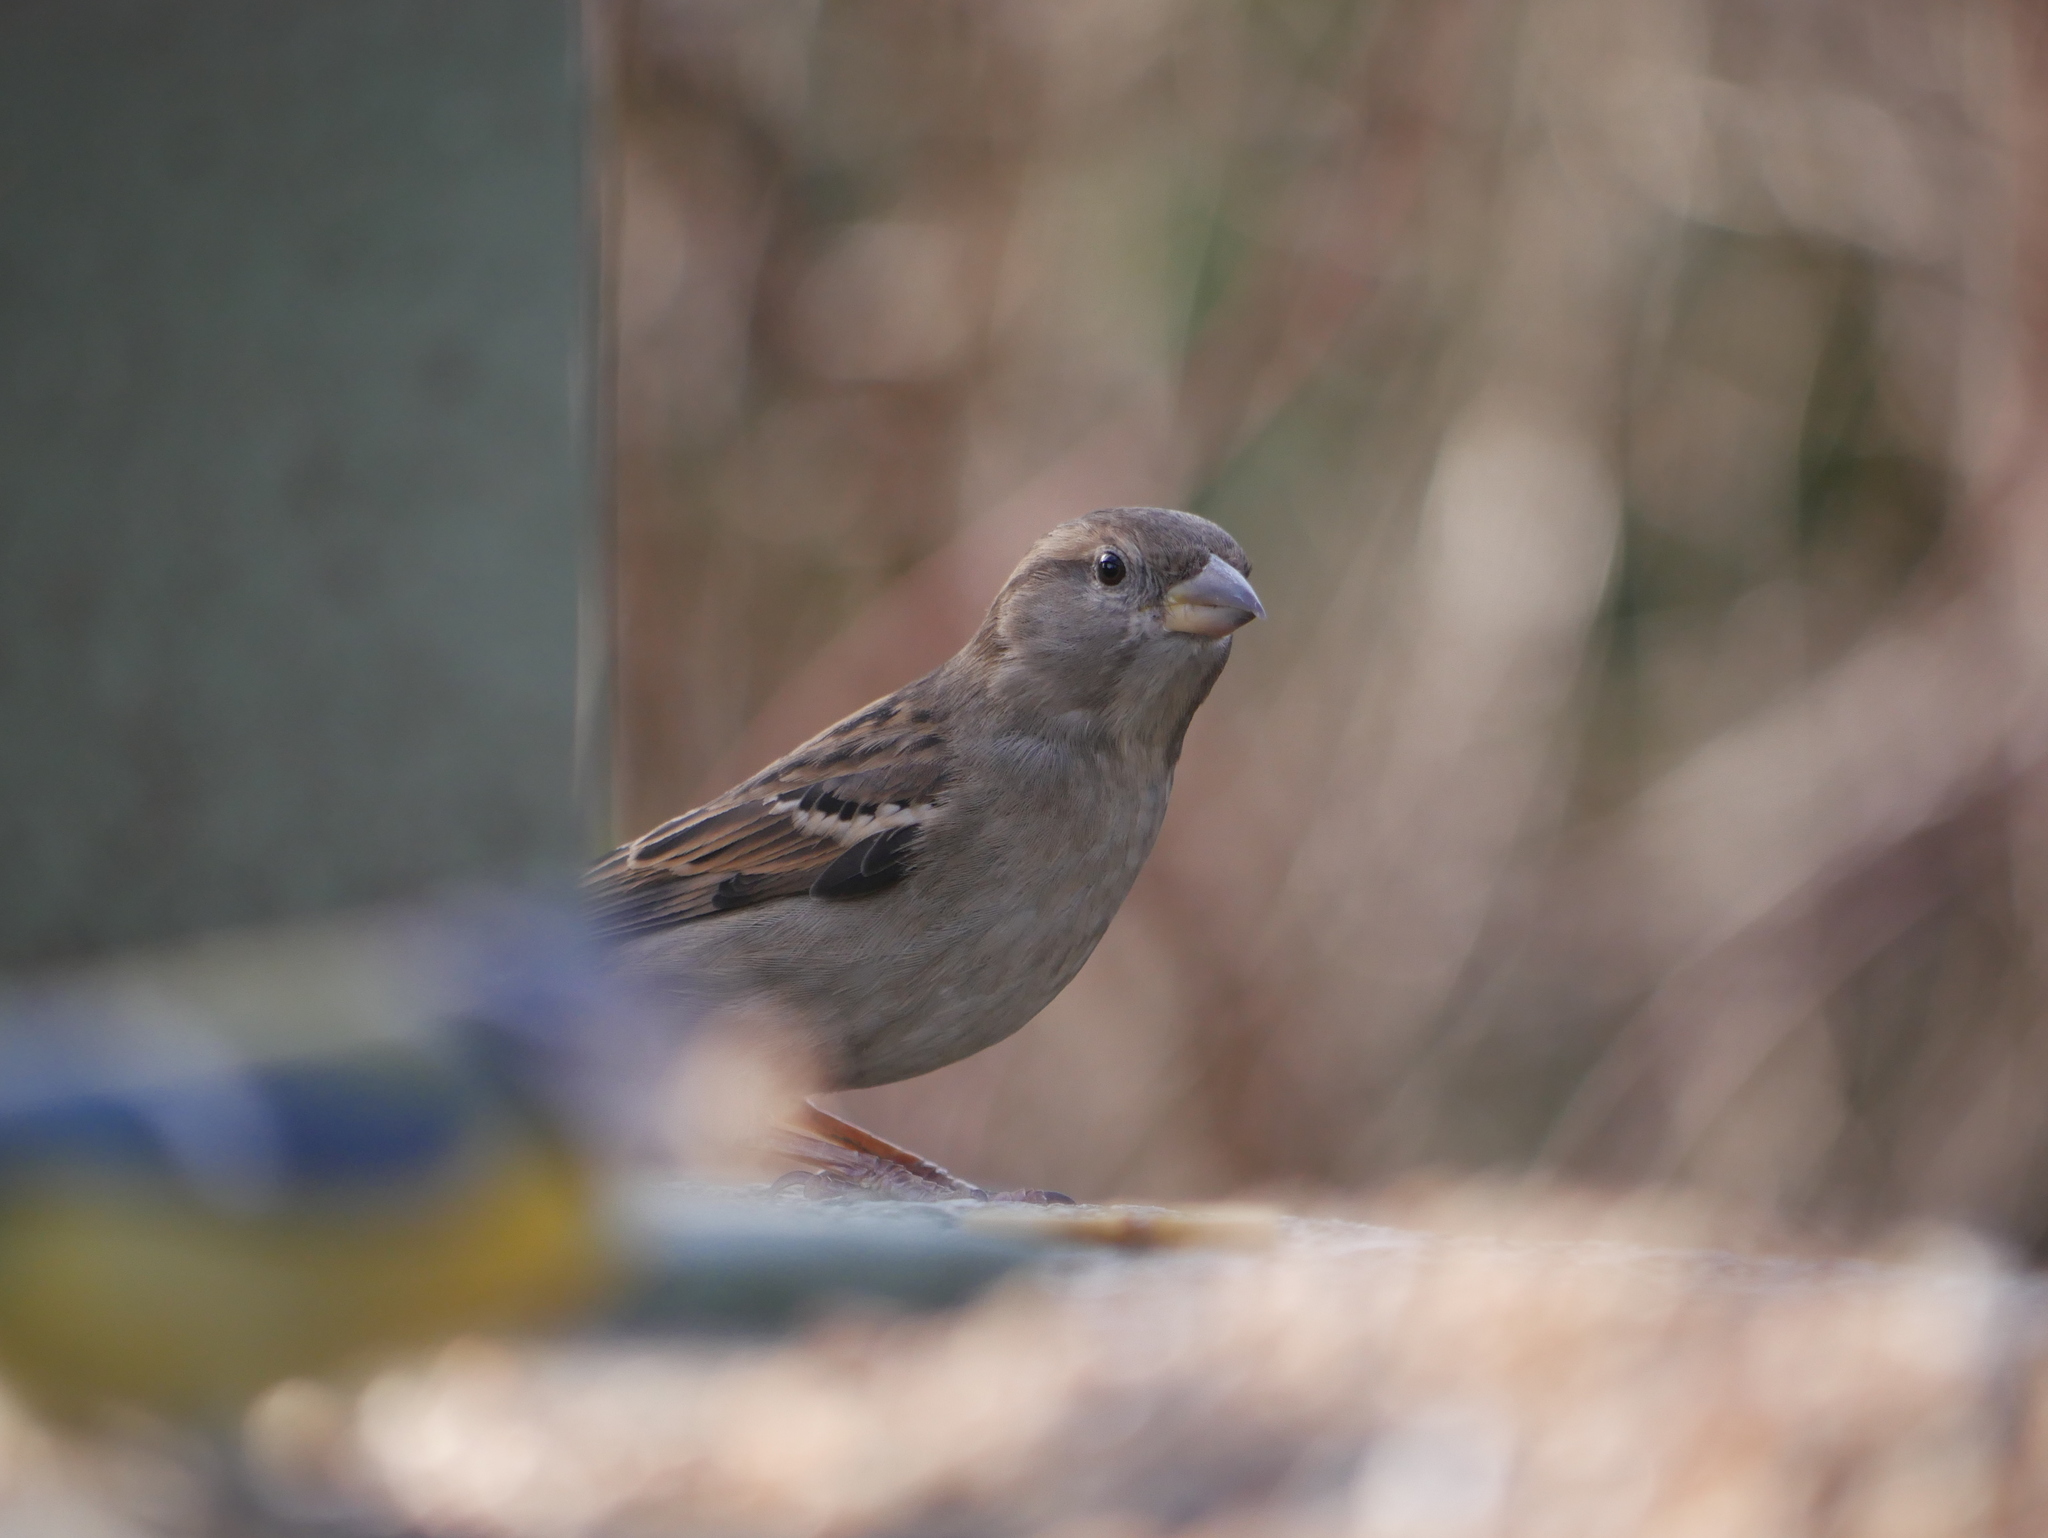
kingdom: Animalia
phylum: Chordata
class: Aves
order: Passeriformes
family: Passeridae
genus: Passer
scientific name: Passer domesticus
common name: House sparrow
